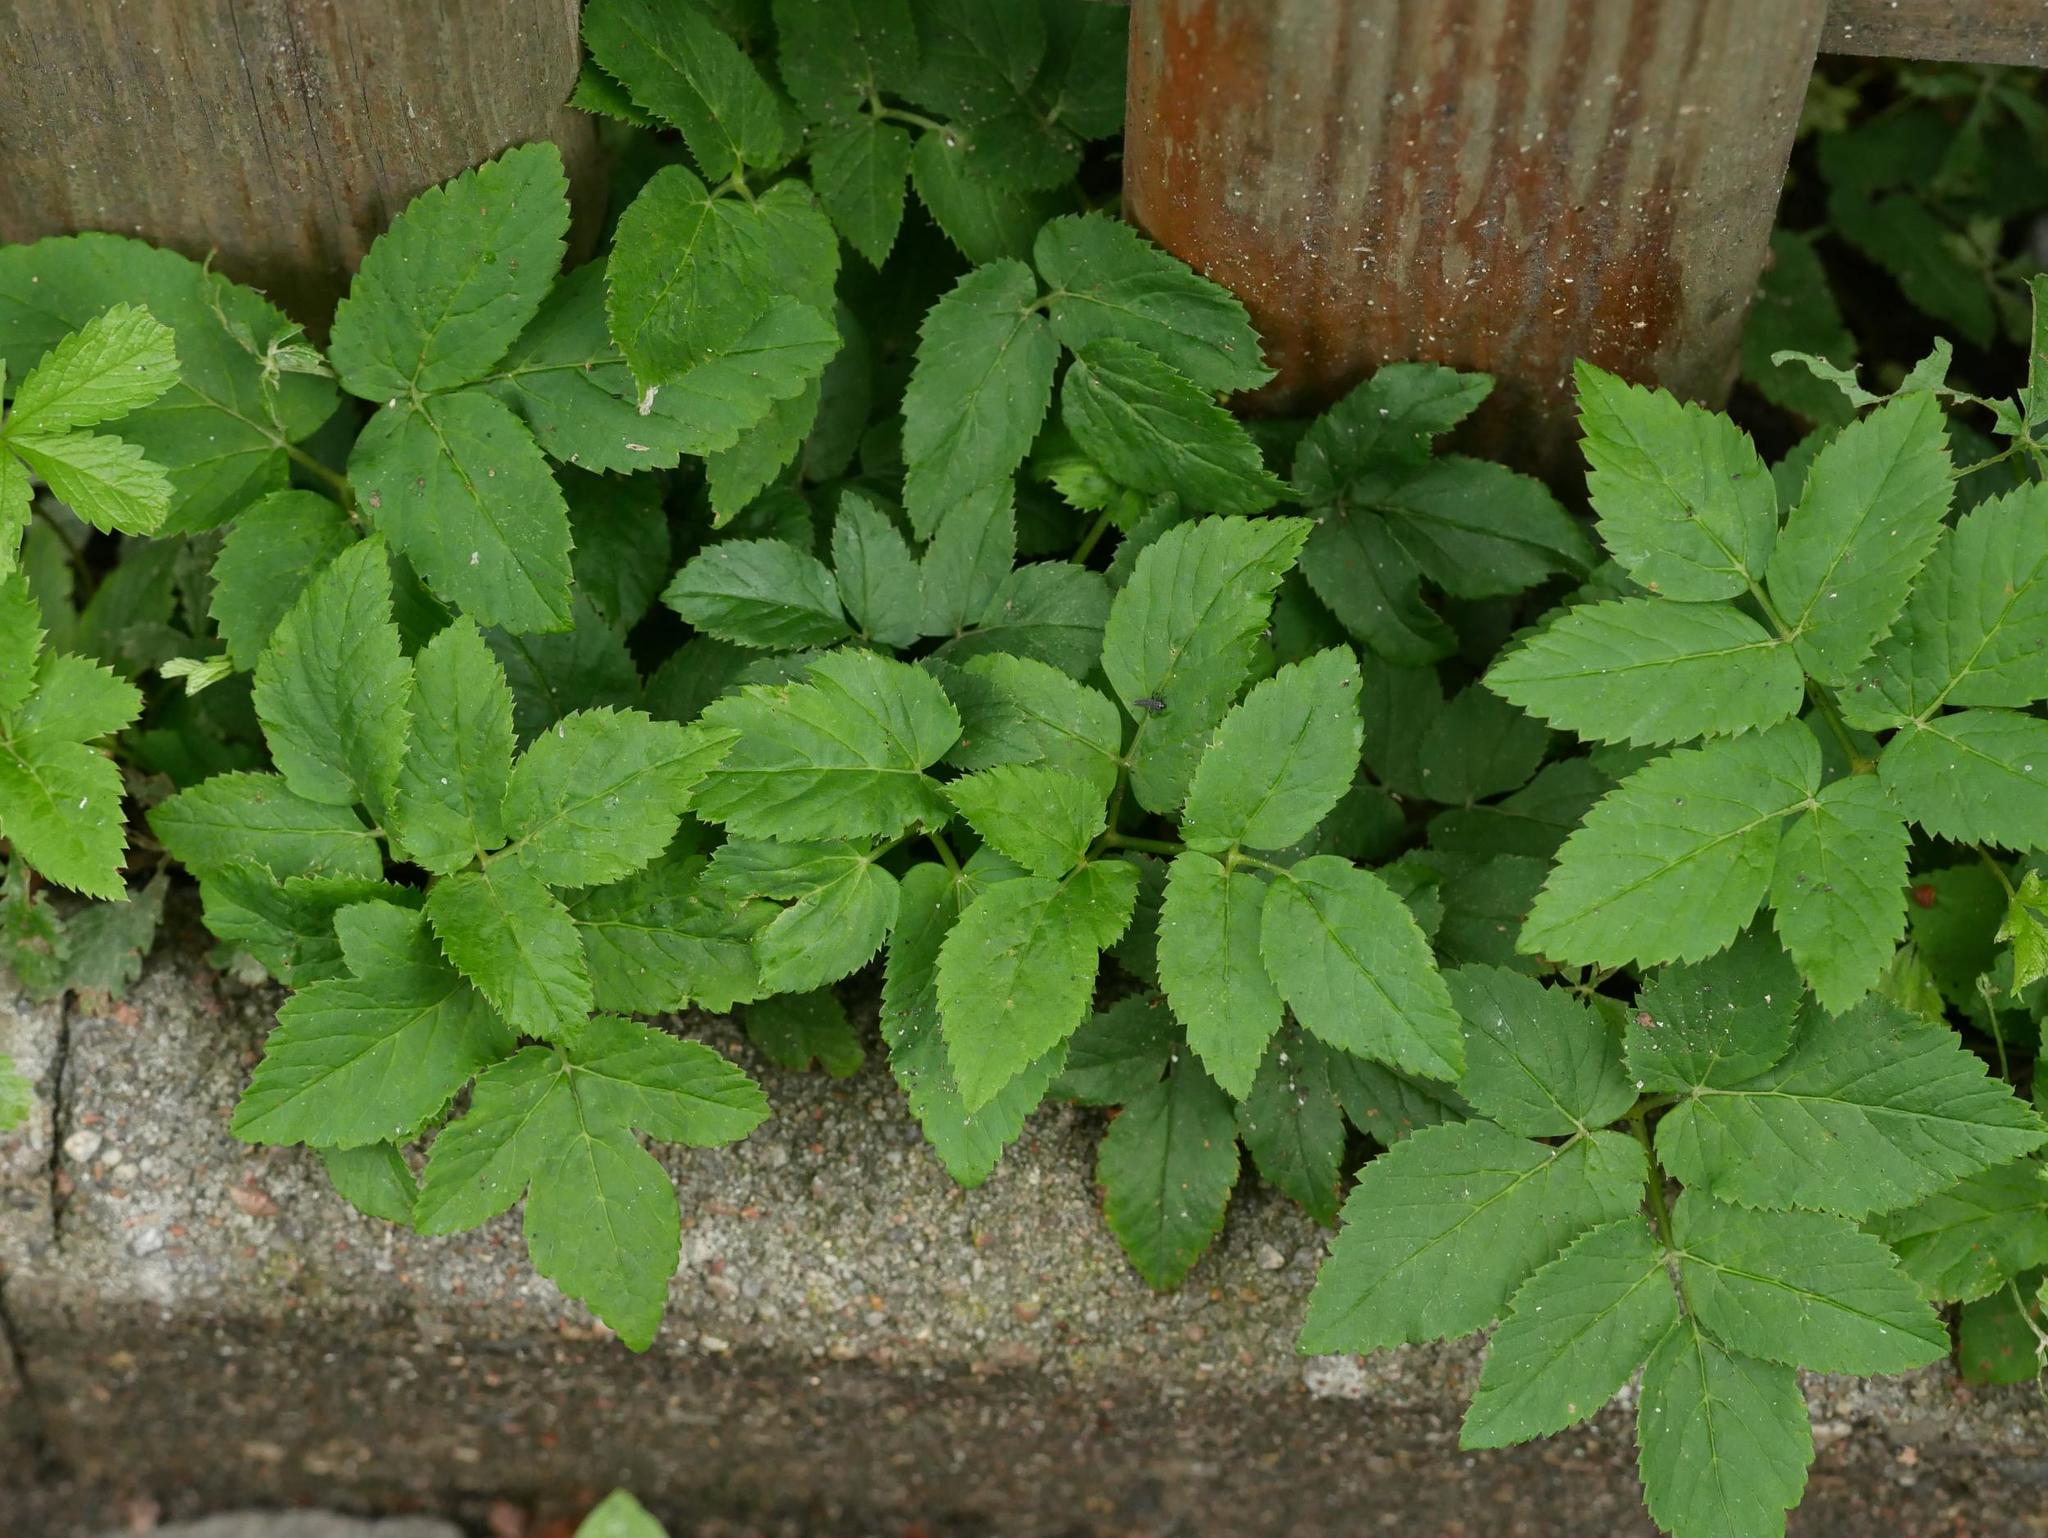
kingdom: Plantae
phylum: Tracheophyta
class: Magnoliopsida
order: Apiales
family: Apiaceae
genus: Aegopodium
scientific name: Aegopodium podagraria
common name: Ground-elder
